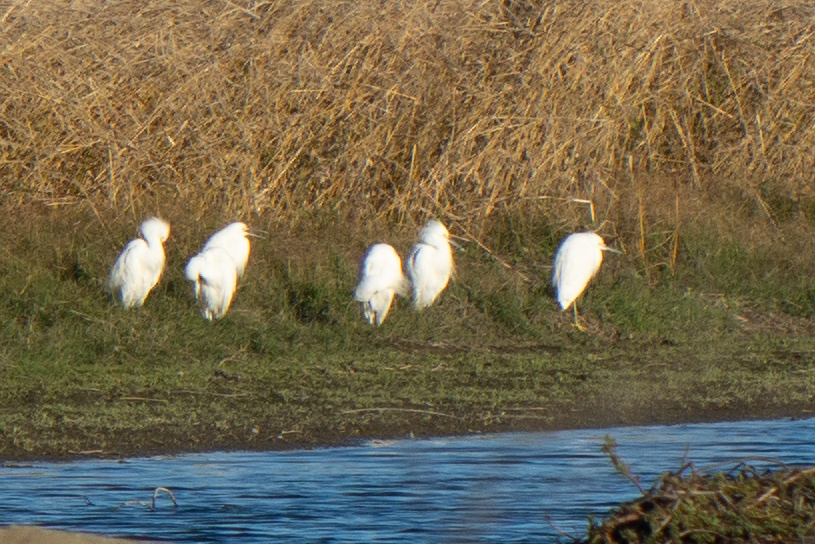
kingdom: Animalia
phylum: Chordata
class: Aves
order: Pelecaniformes
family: Ardeidae
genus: Egretta
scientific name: Egretta thula
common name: Snowy egret
